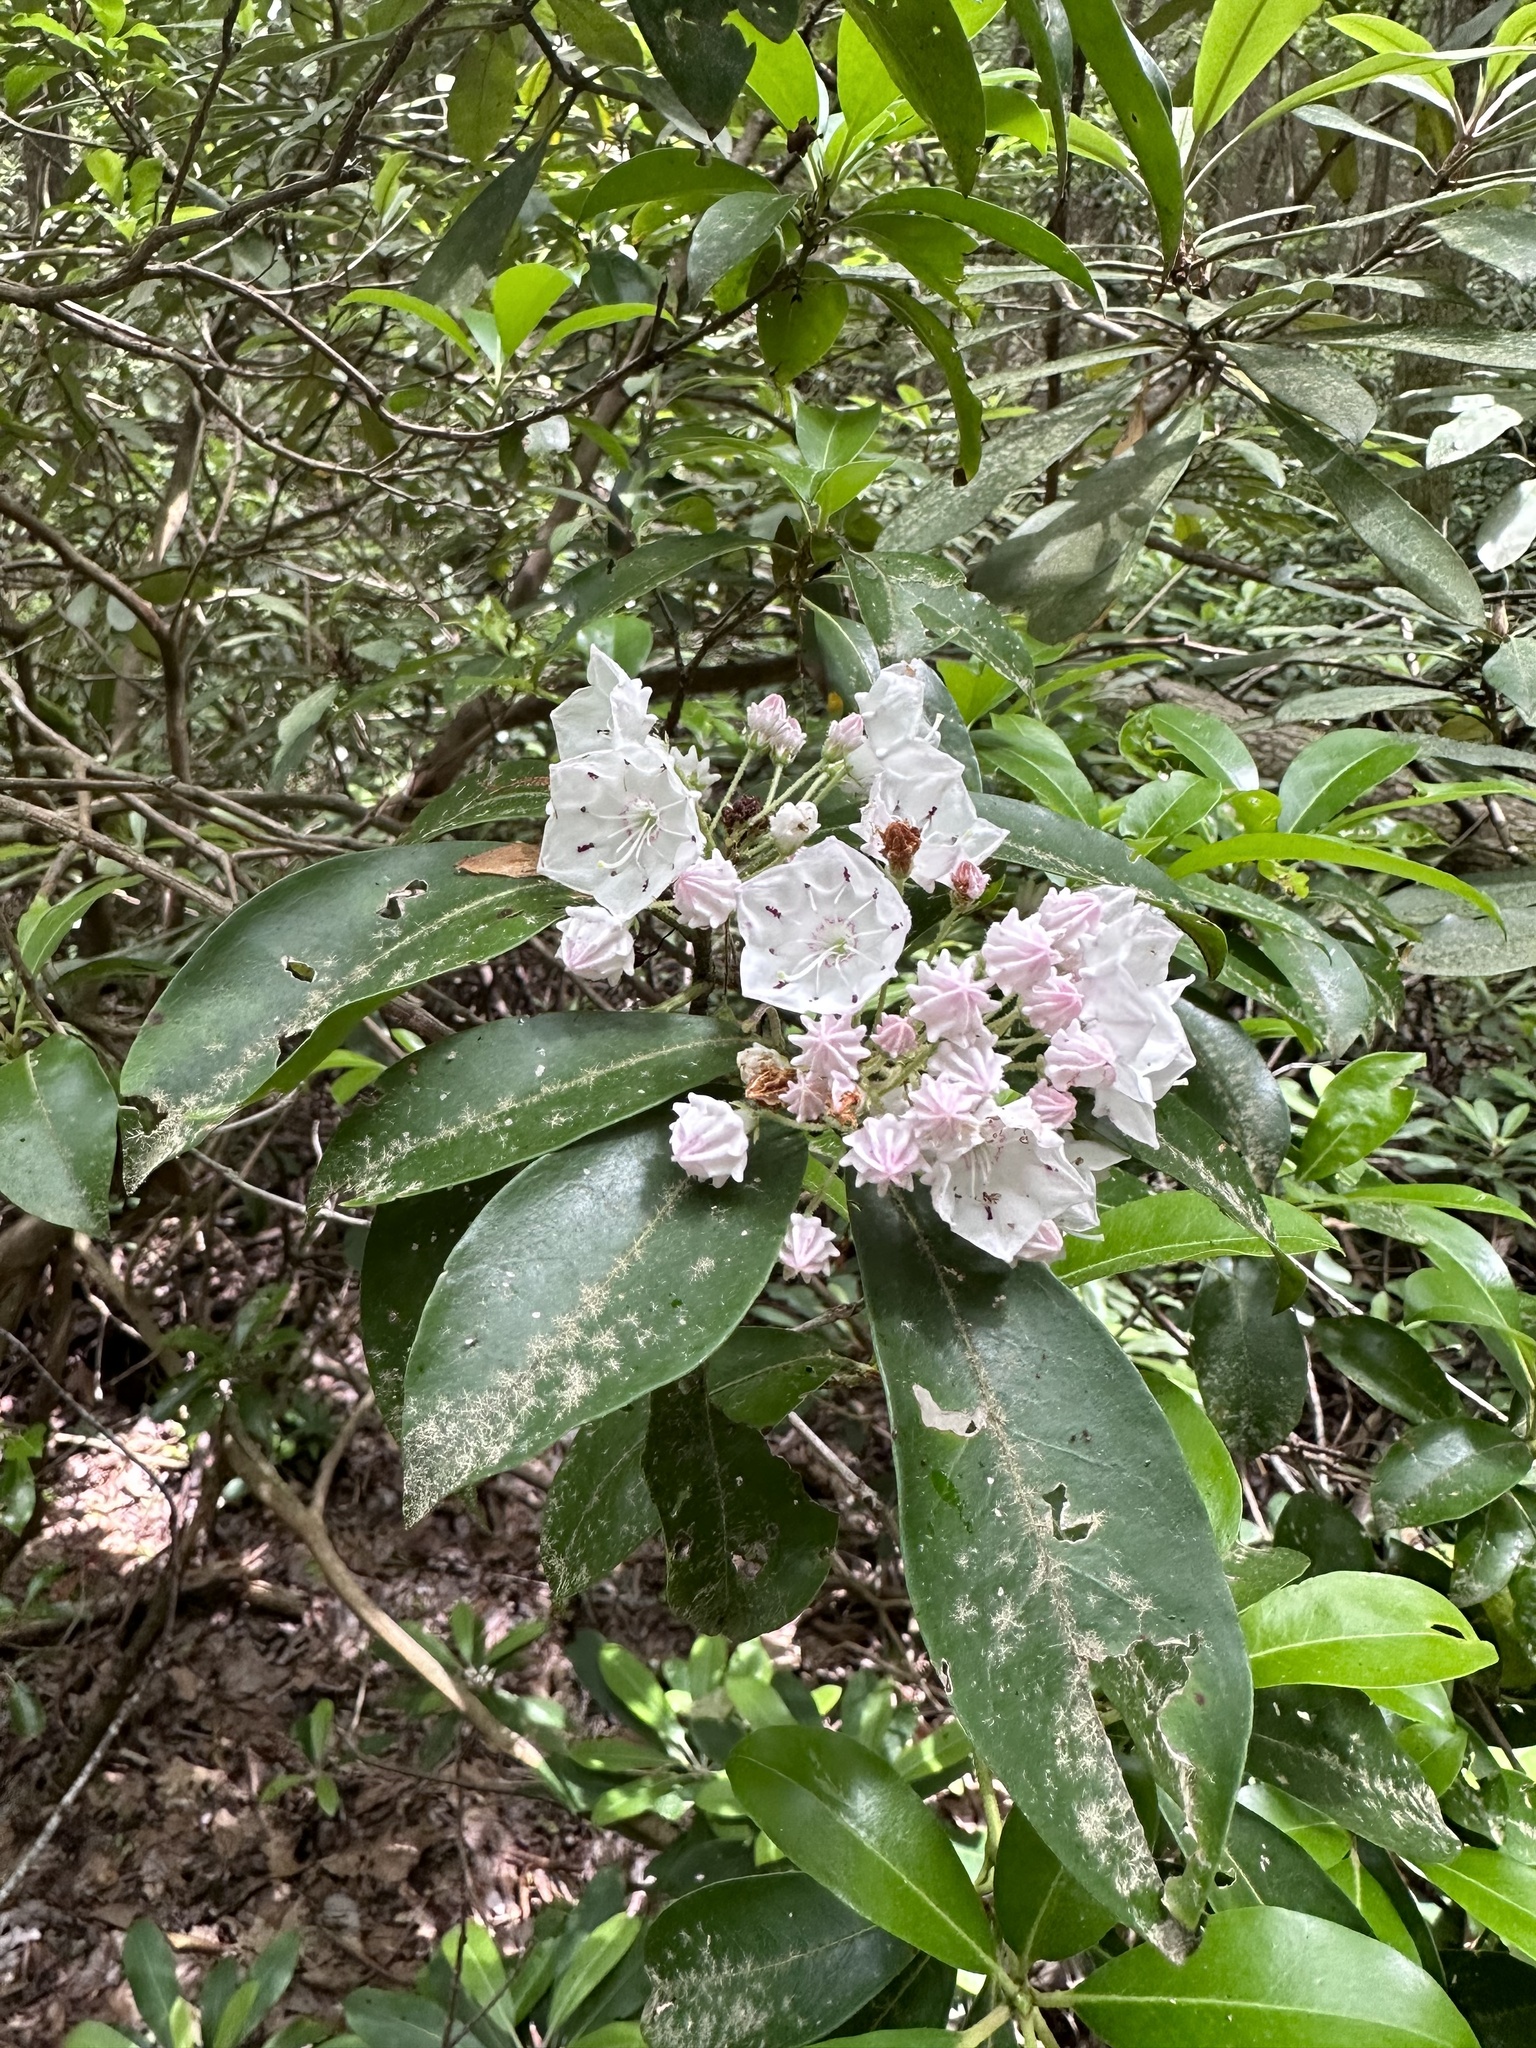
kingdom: Plantae
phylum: Tracheophyta
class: Magnoliopsida
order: Ericales
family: Ericaceae
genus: Kalmia
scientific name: Kalmia latifolia
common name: Mountain-laurel
